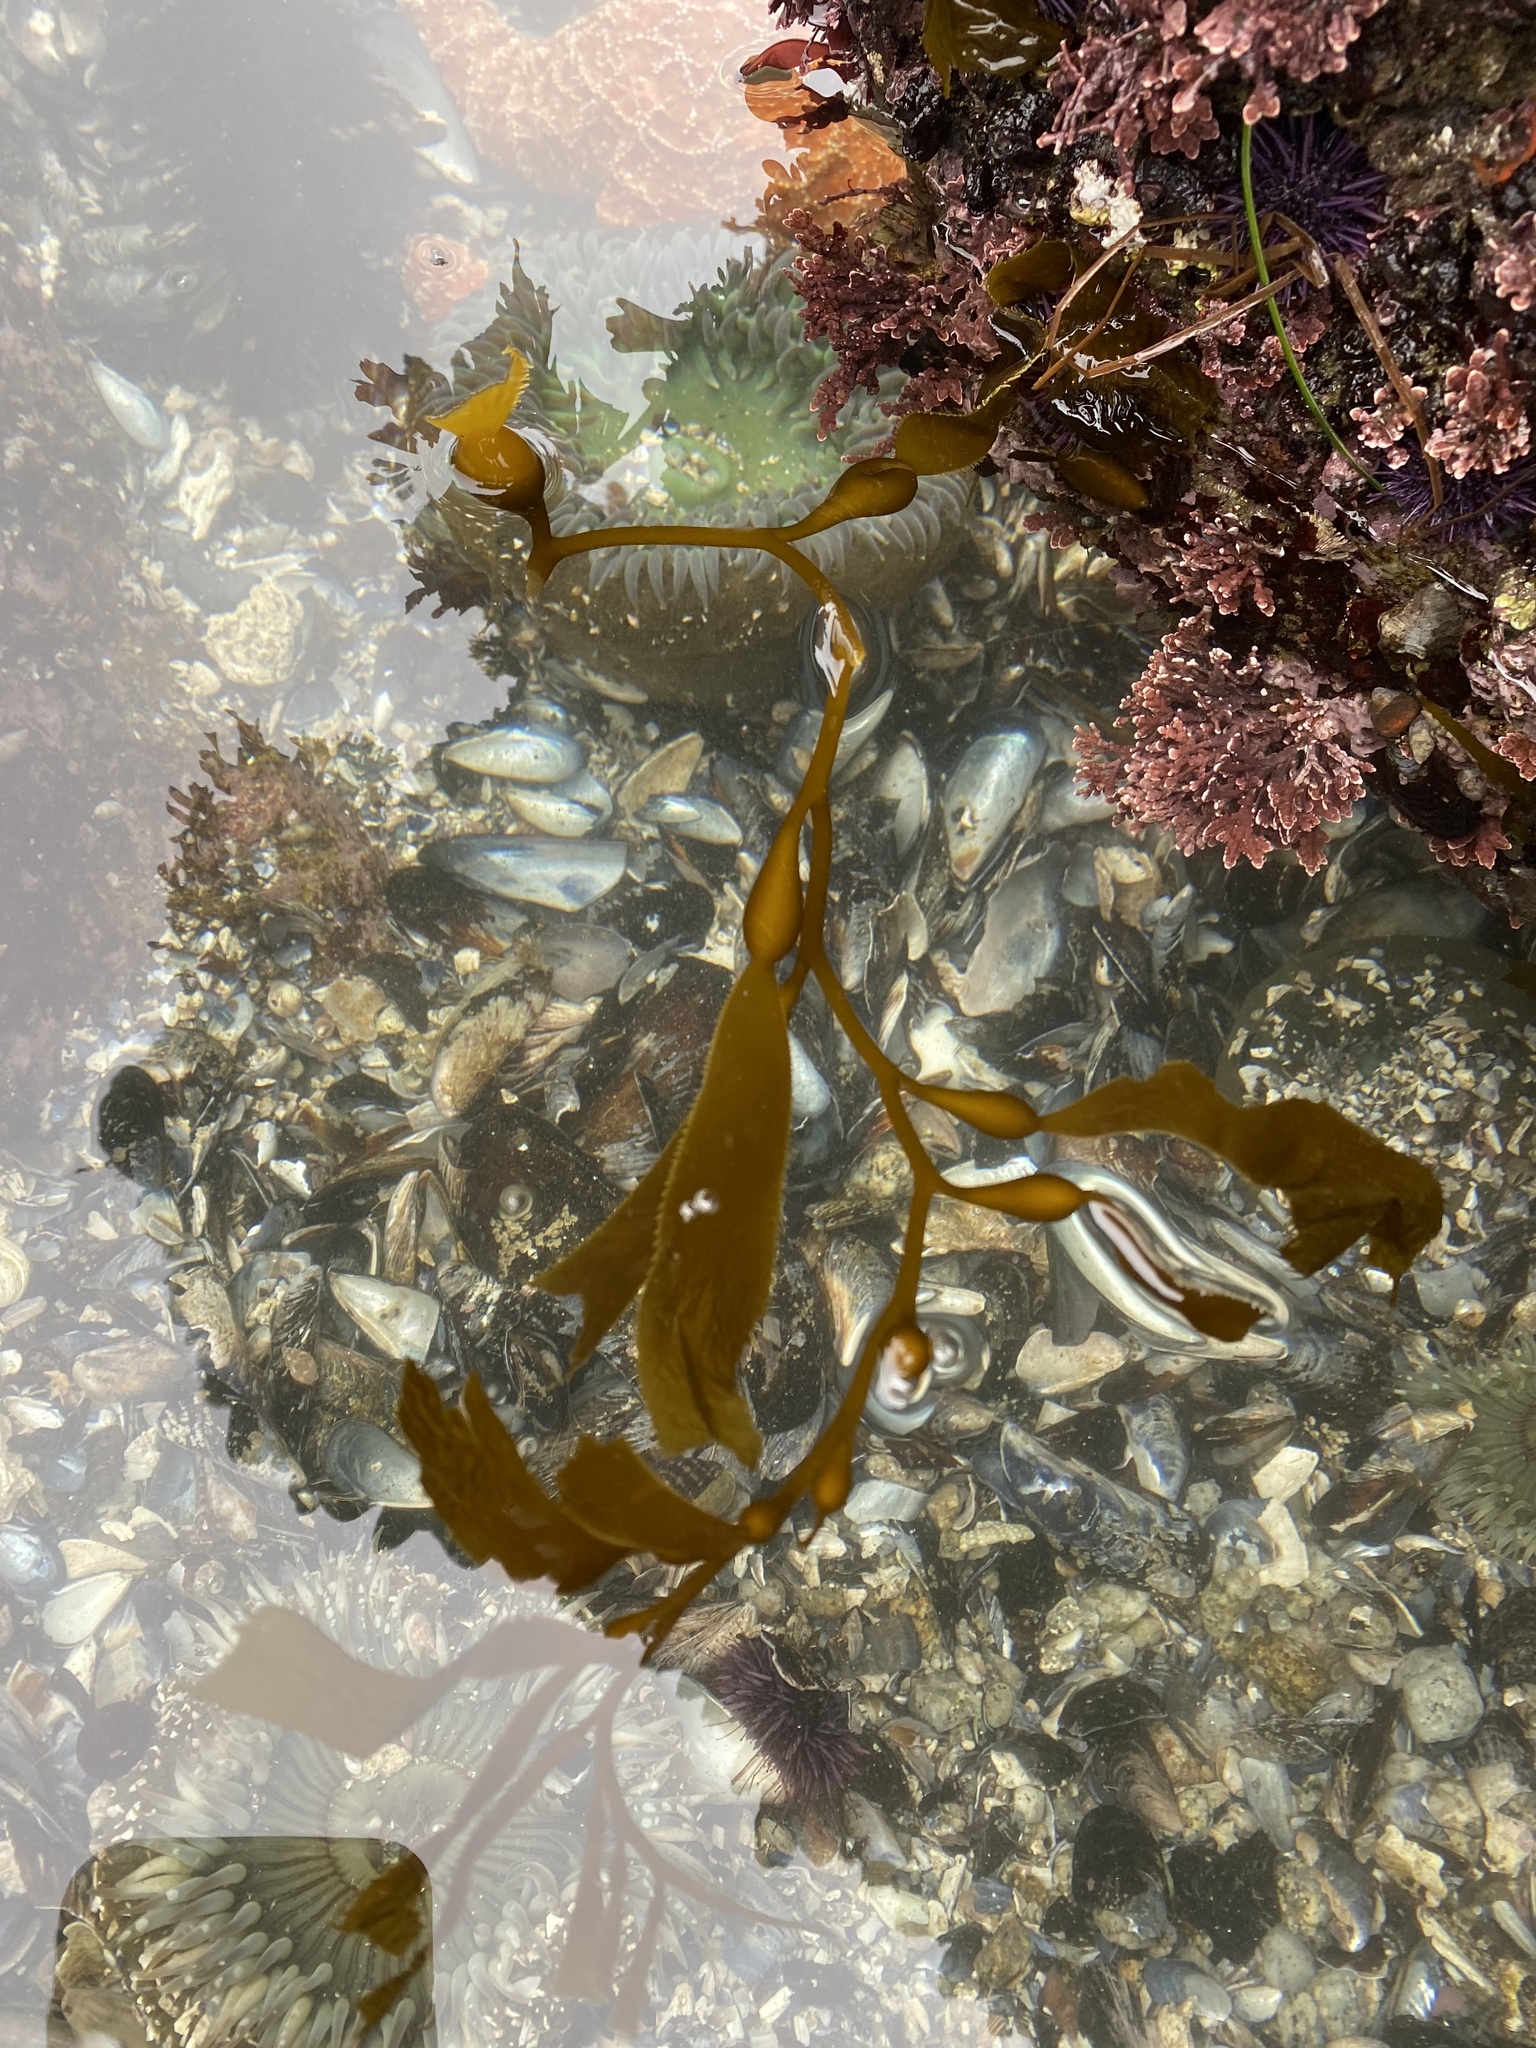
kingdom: Chromista
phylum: Ochrophyta
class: Phaeophyceae
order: Laminariales
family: Laminariaceae
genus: Macrocystis
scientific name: Macrocystis pyrifera
